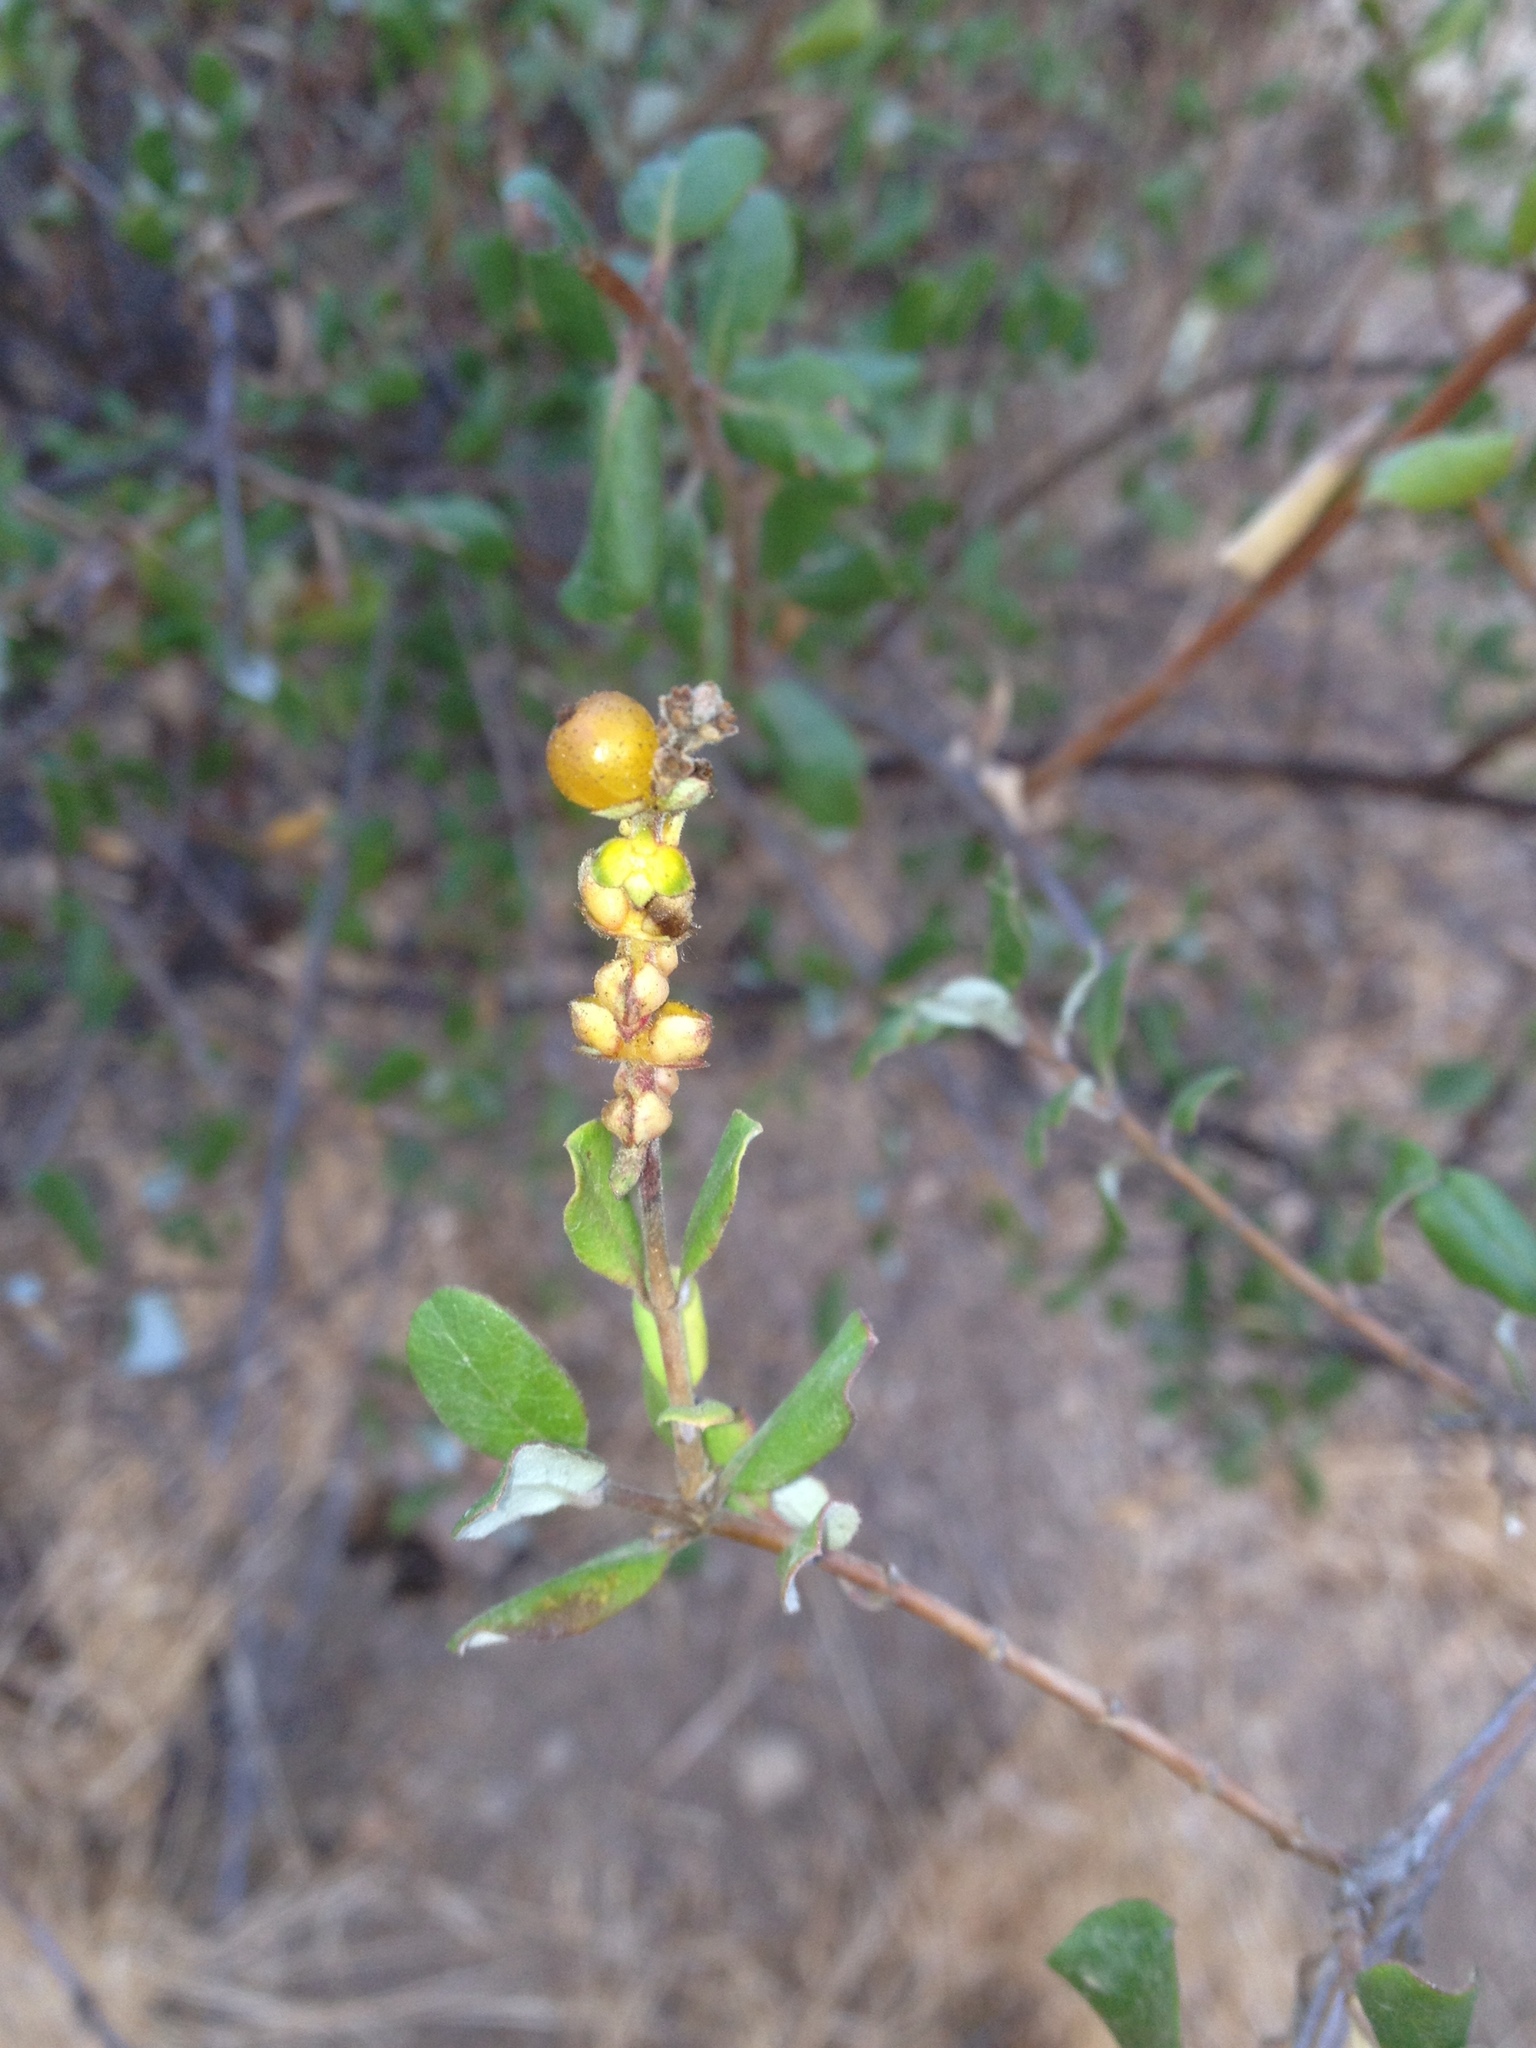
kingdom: Plantae
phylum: Tracheophyta
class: Magnoliopsida
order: Dipsacales
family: Caprifoliaceae
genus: Lonicera
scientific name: Lonicera subspicata
